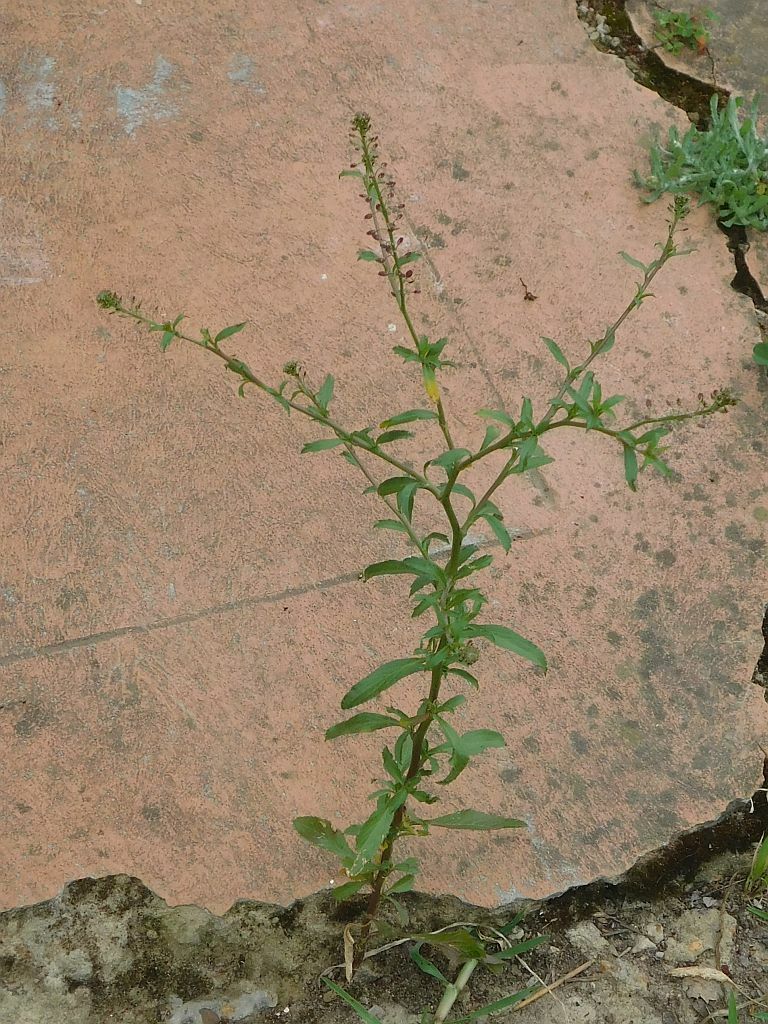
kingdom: Plantae
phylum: Tracheophyta
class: Magnoliopsida
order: Brassicales
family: Brassicaceae
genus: Lepidium
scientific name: Lepidium africanum
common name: African pepperwort
